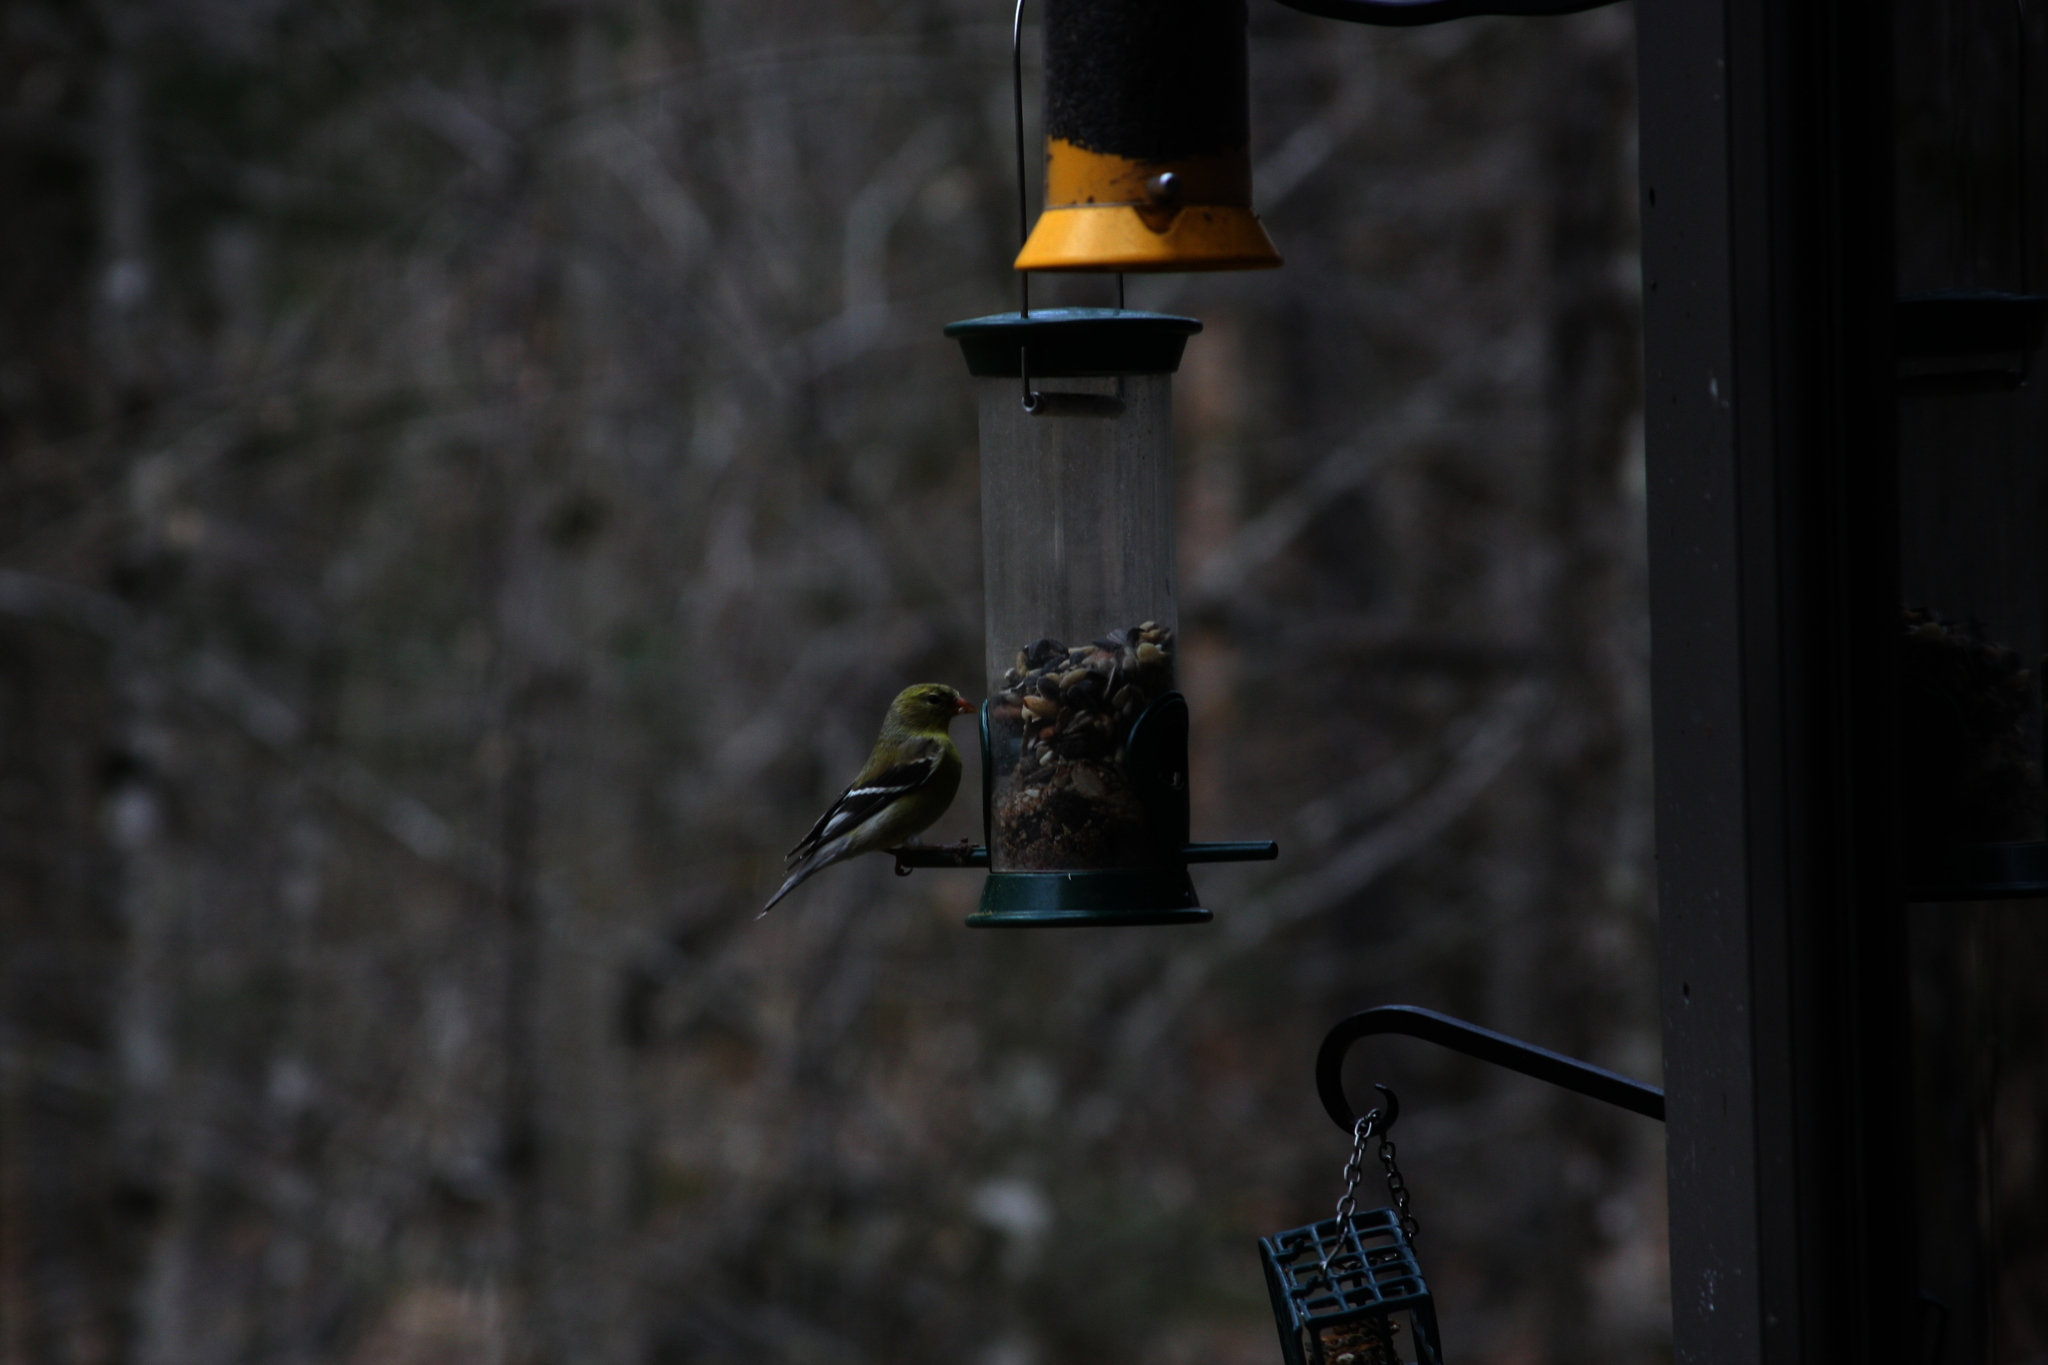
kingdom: Animalia
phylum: Chordata
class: Aves
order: Passeriformes
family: Fringillidae
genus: Spinus
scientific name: Spinus tristis
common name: American goldfinch
